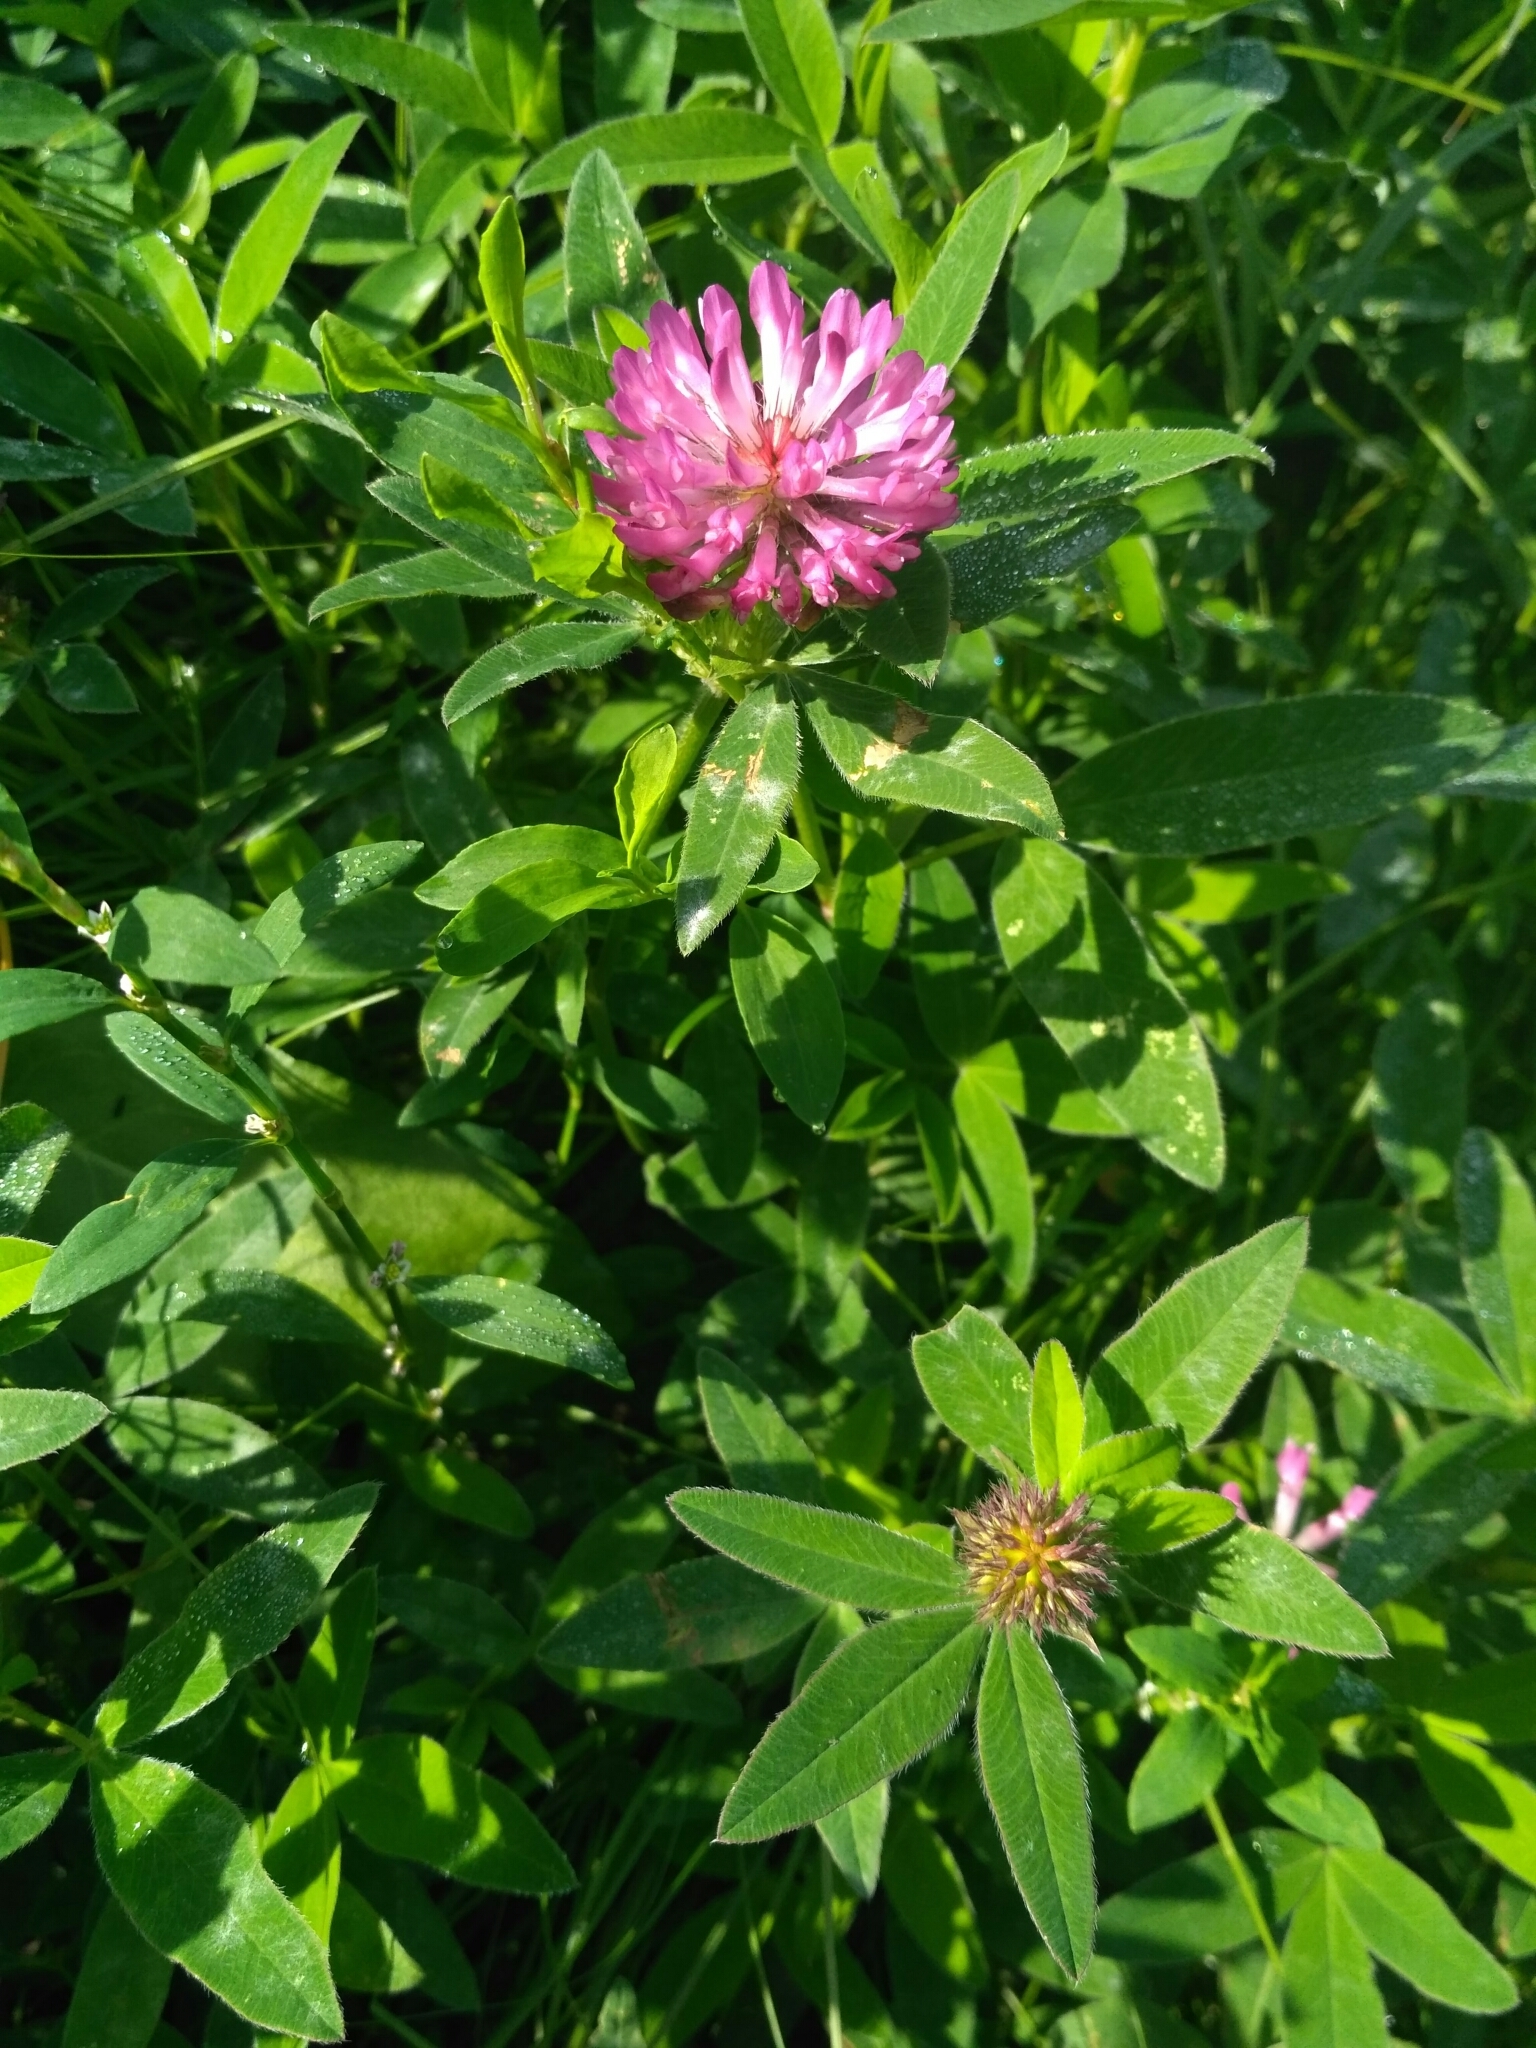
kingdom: Plantae
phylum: Tracheophyta
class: Magnoliopsida
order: Fabales
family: Fabaceae
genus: Trifolium
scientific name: Trifolium medium
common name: Zigzag clover
